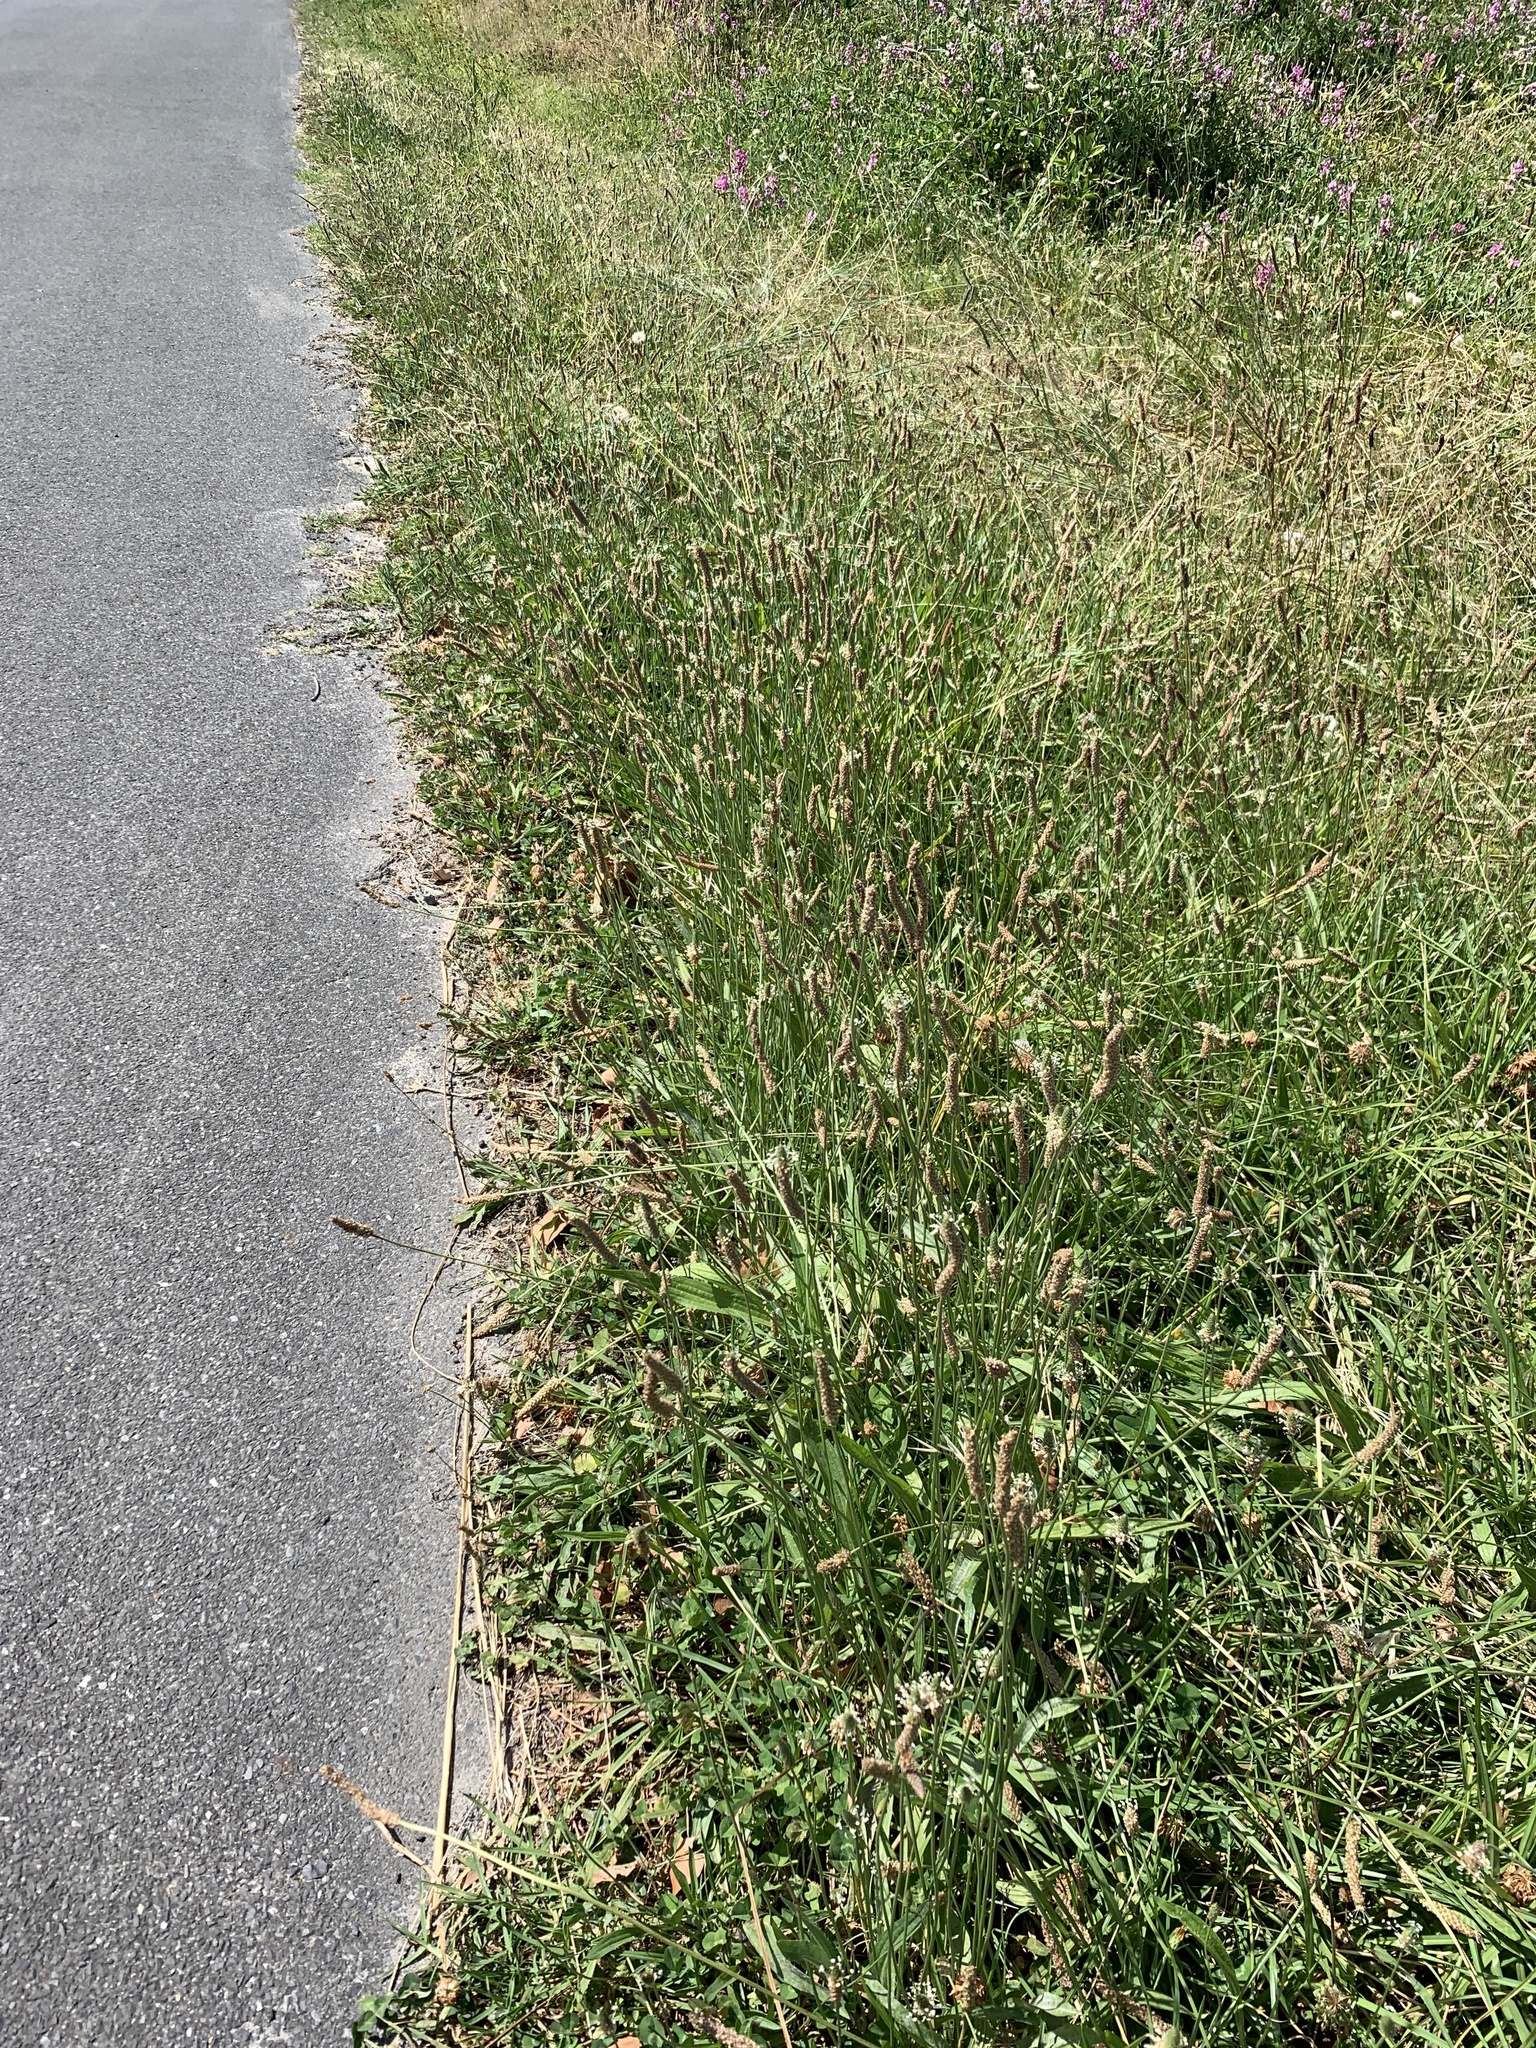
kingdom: Plantae
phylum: Tracheophyta
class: Magnoliopsida
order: Lamiales
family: Plantaginaceae
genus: Plantago
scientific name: Plantago lanceolata
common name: Ribwort plantain
